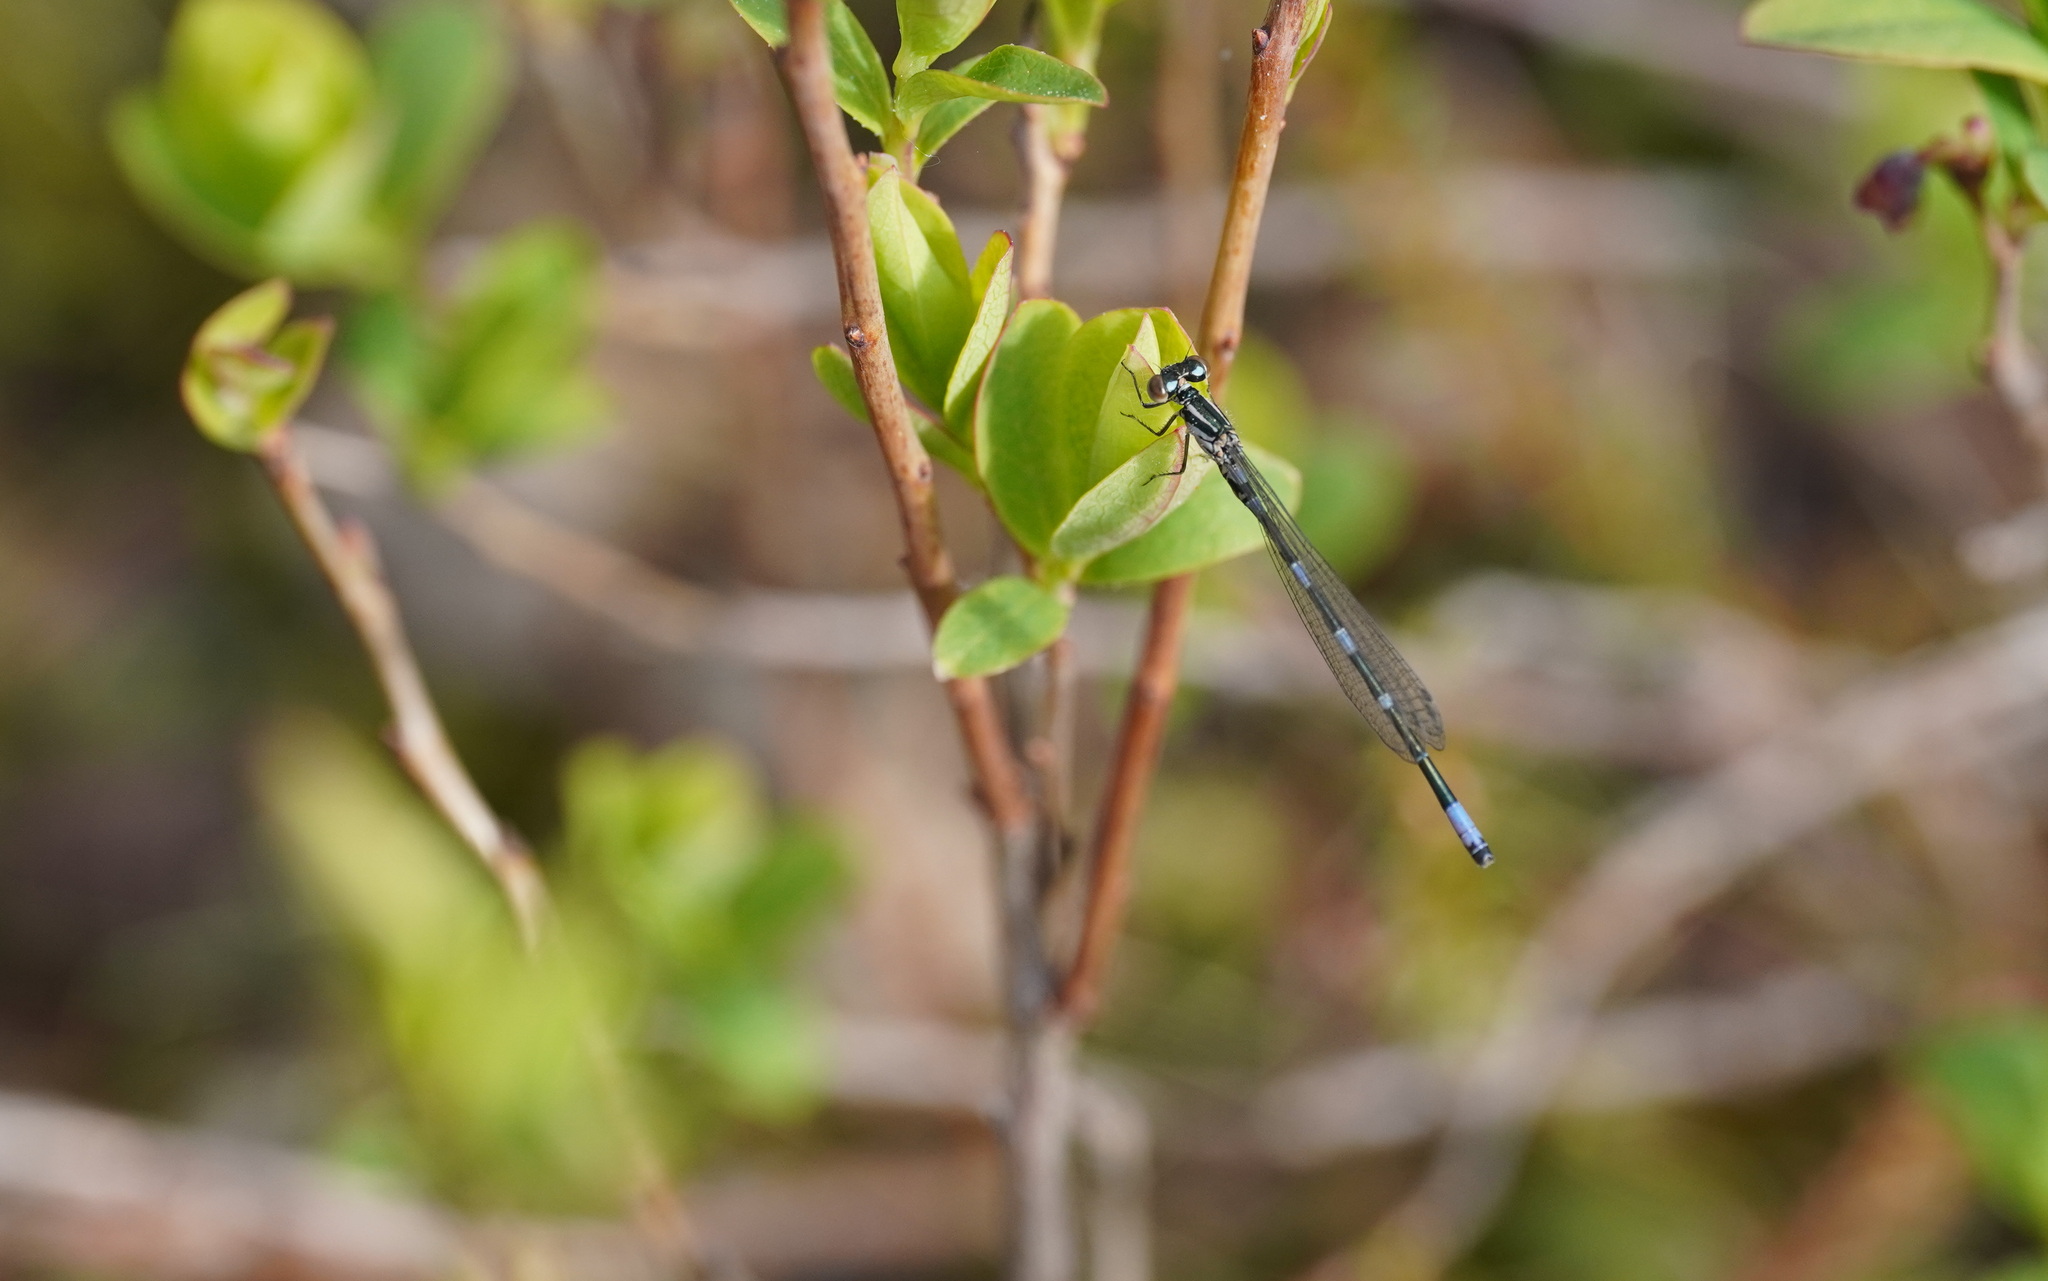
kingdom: Animalia
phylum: Arthropoda
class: Insecta
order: Odonata
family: Coenagrionidae
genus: Coenagrion
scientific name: Coenagrion johanssoni
